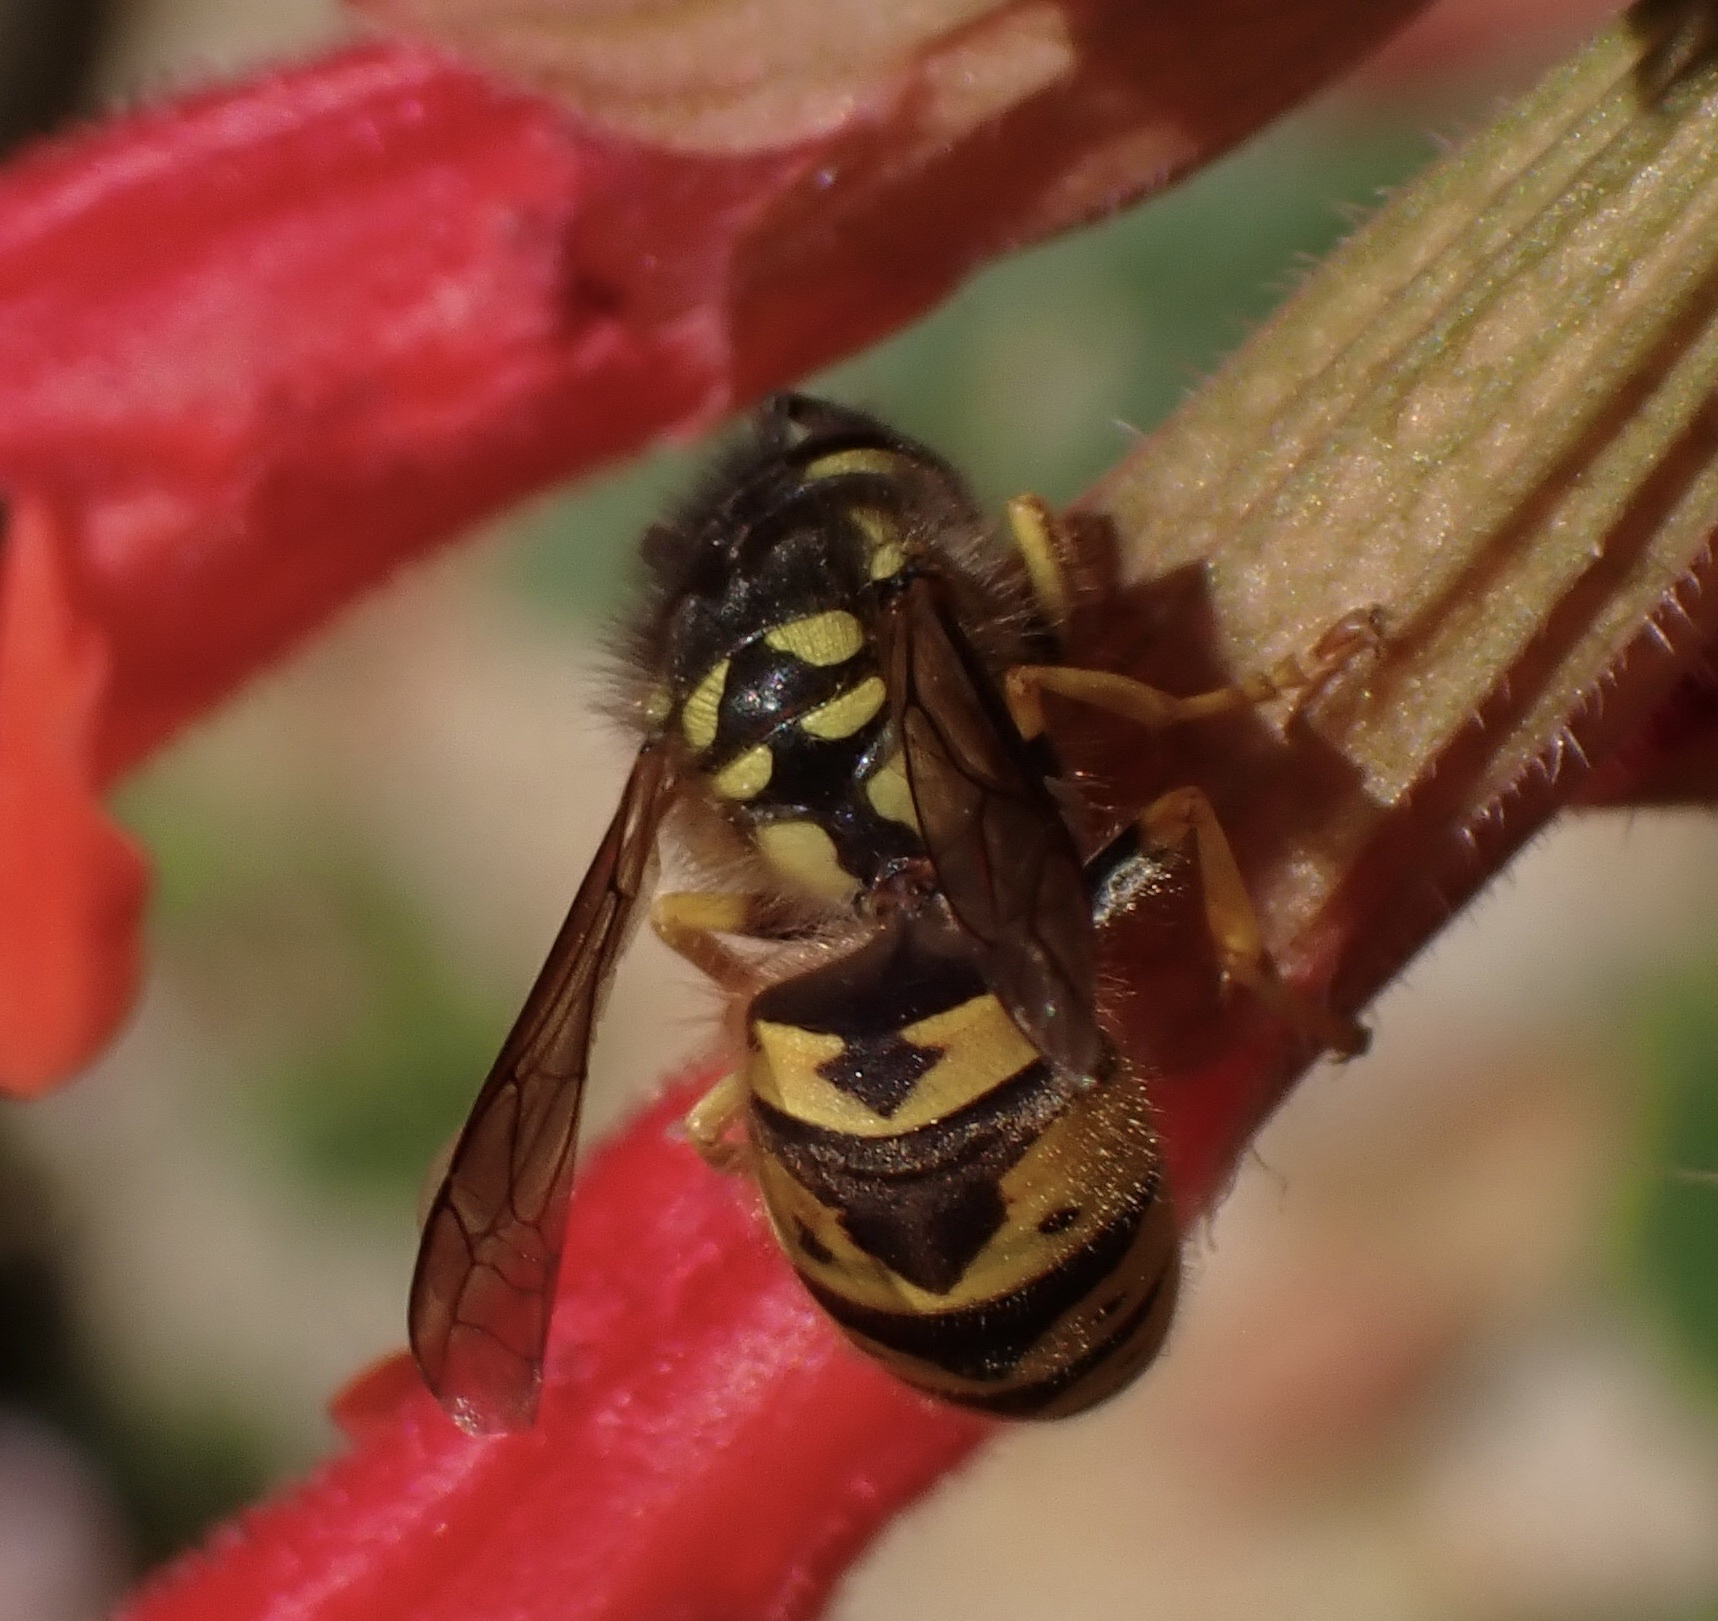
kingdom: Animalia
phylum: Arthropoda
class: Insecta
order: Hymenoptera
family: Vespidae
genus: Vespula
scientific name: Vespula germanica
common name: German wasp
